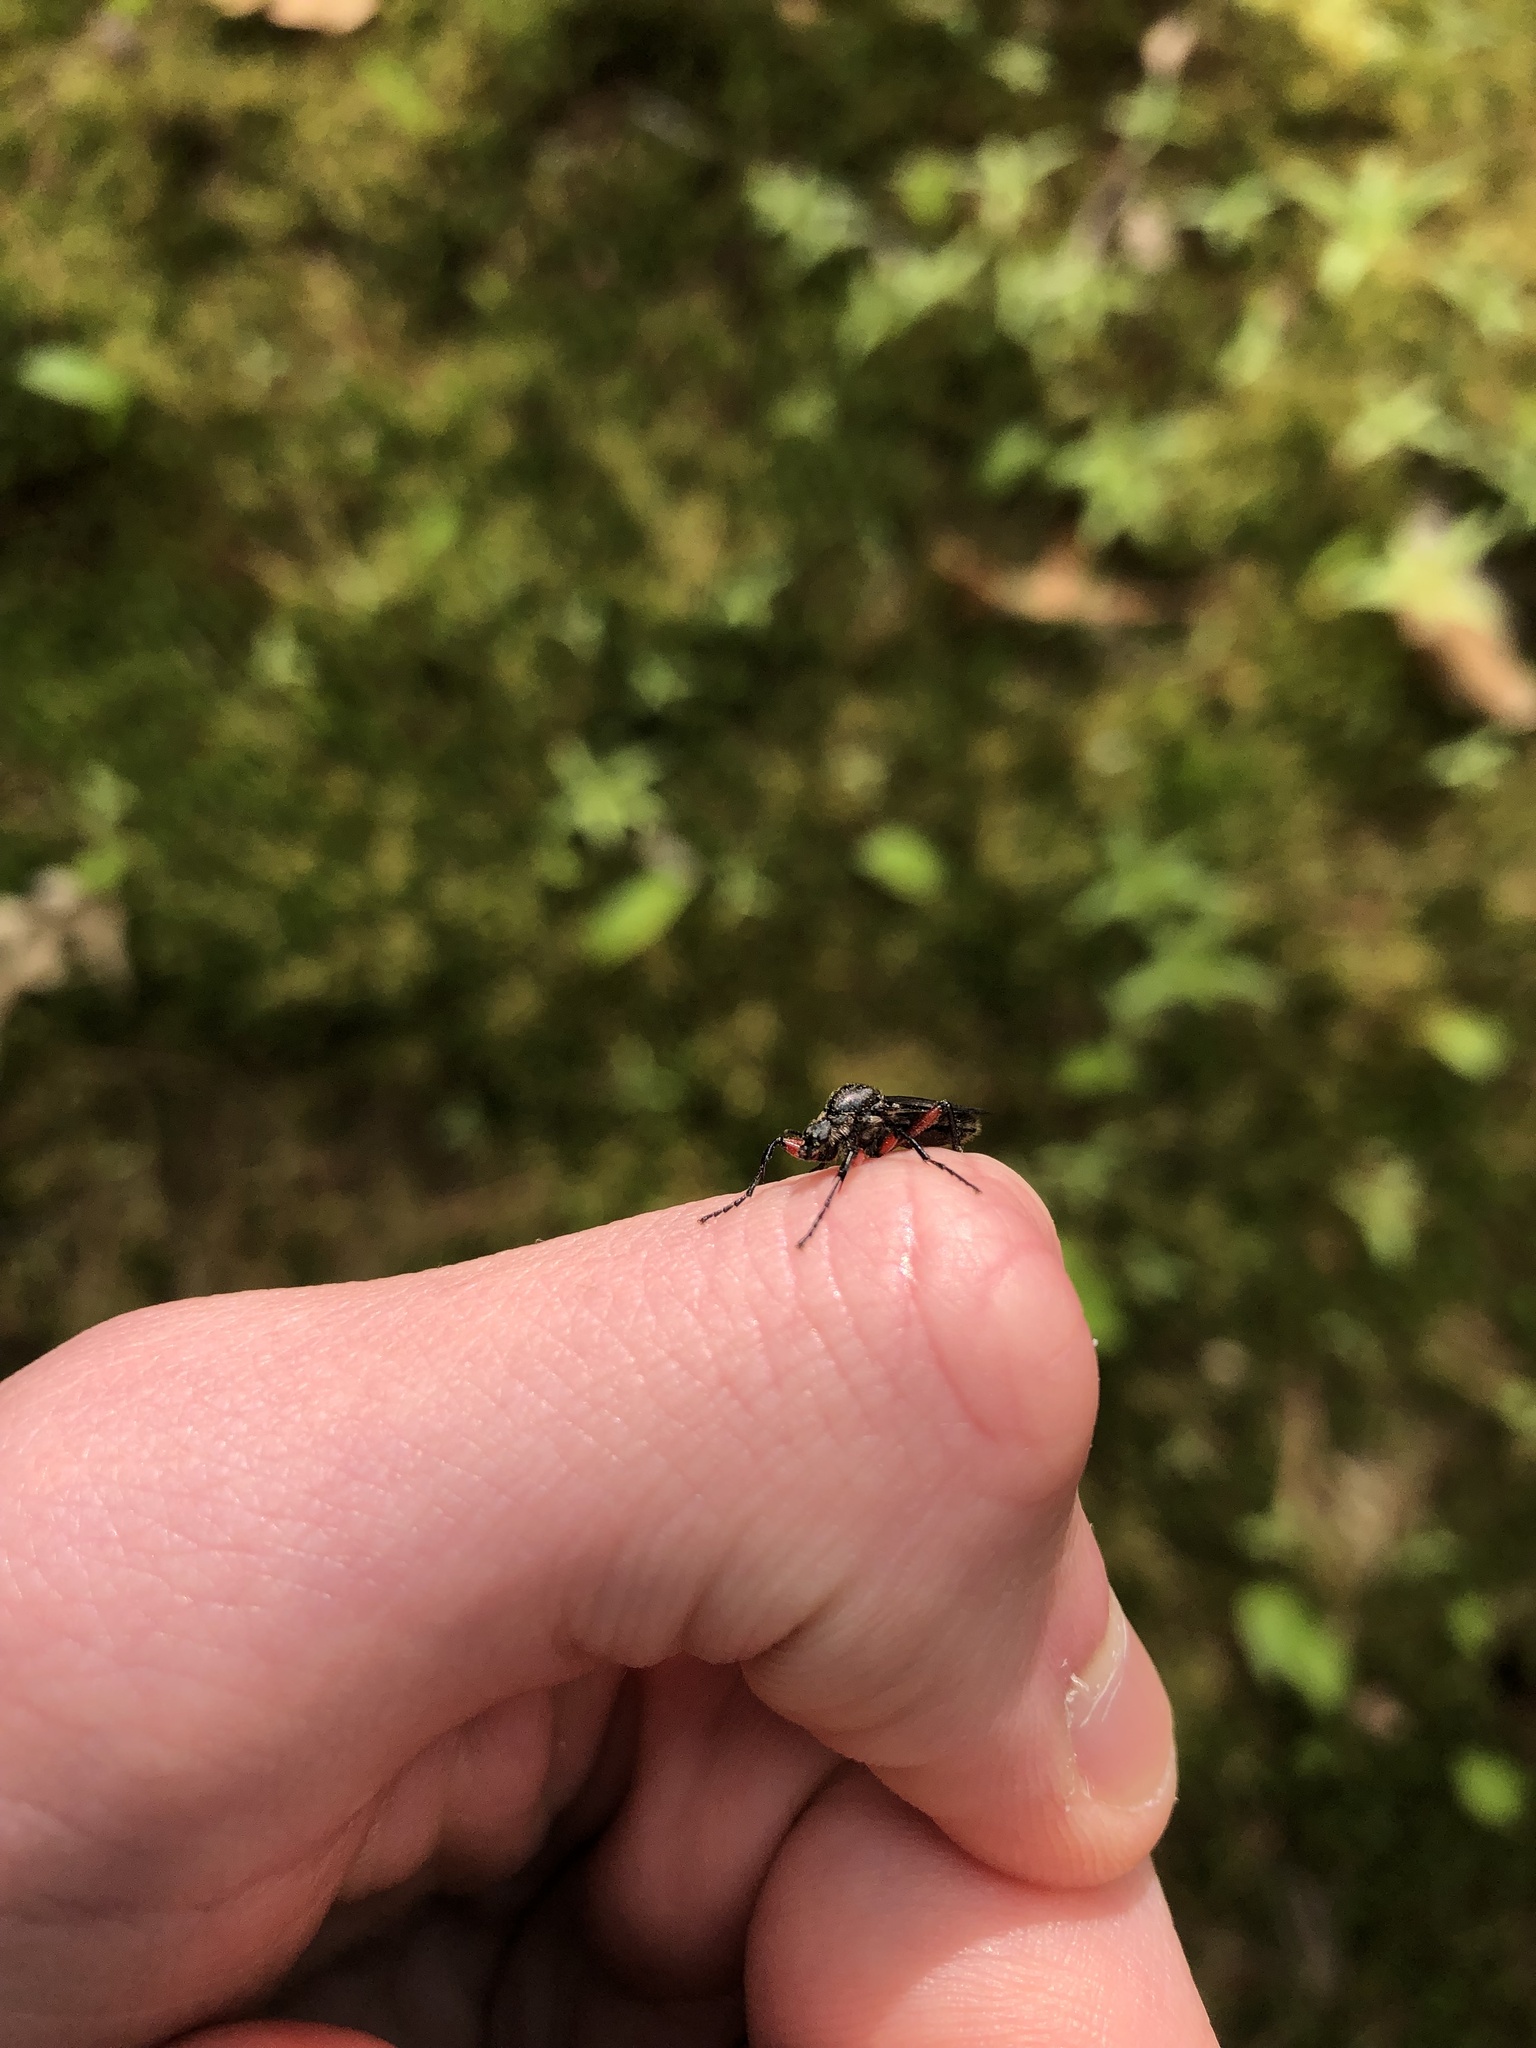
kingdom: Animalia
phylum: Arthropoda
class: Insecta
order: Diptera
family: Bibionidae
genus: Bibio
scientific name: Bibio femoratus
